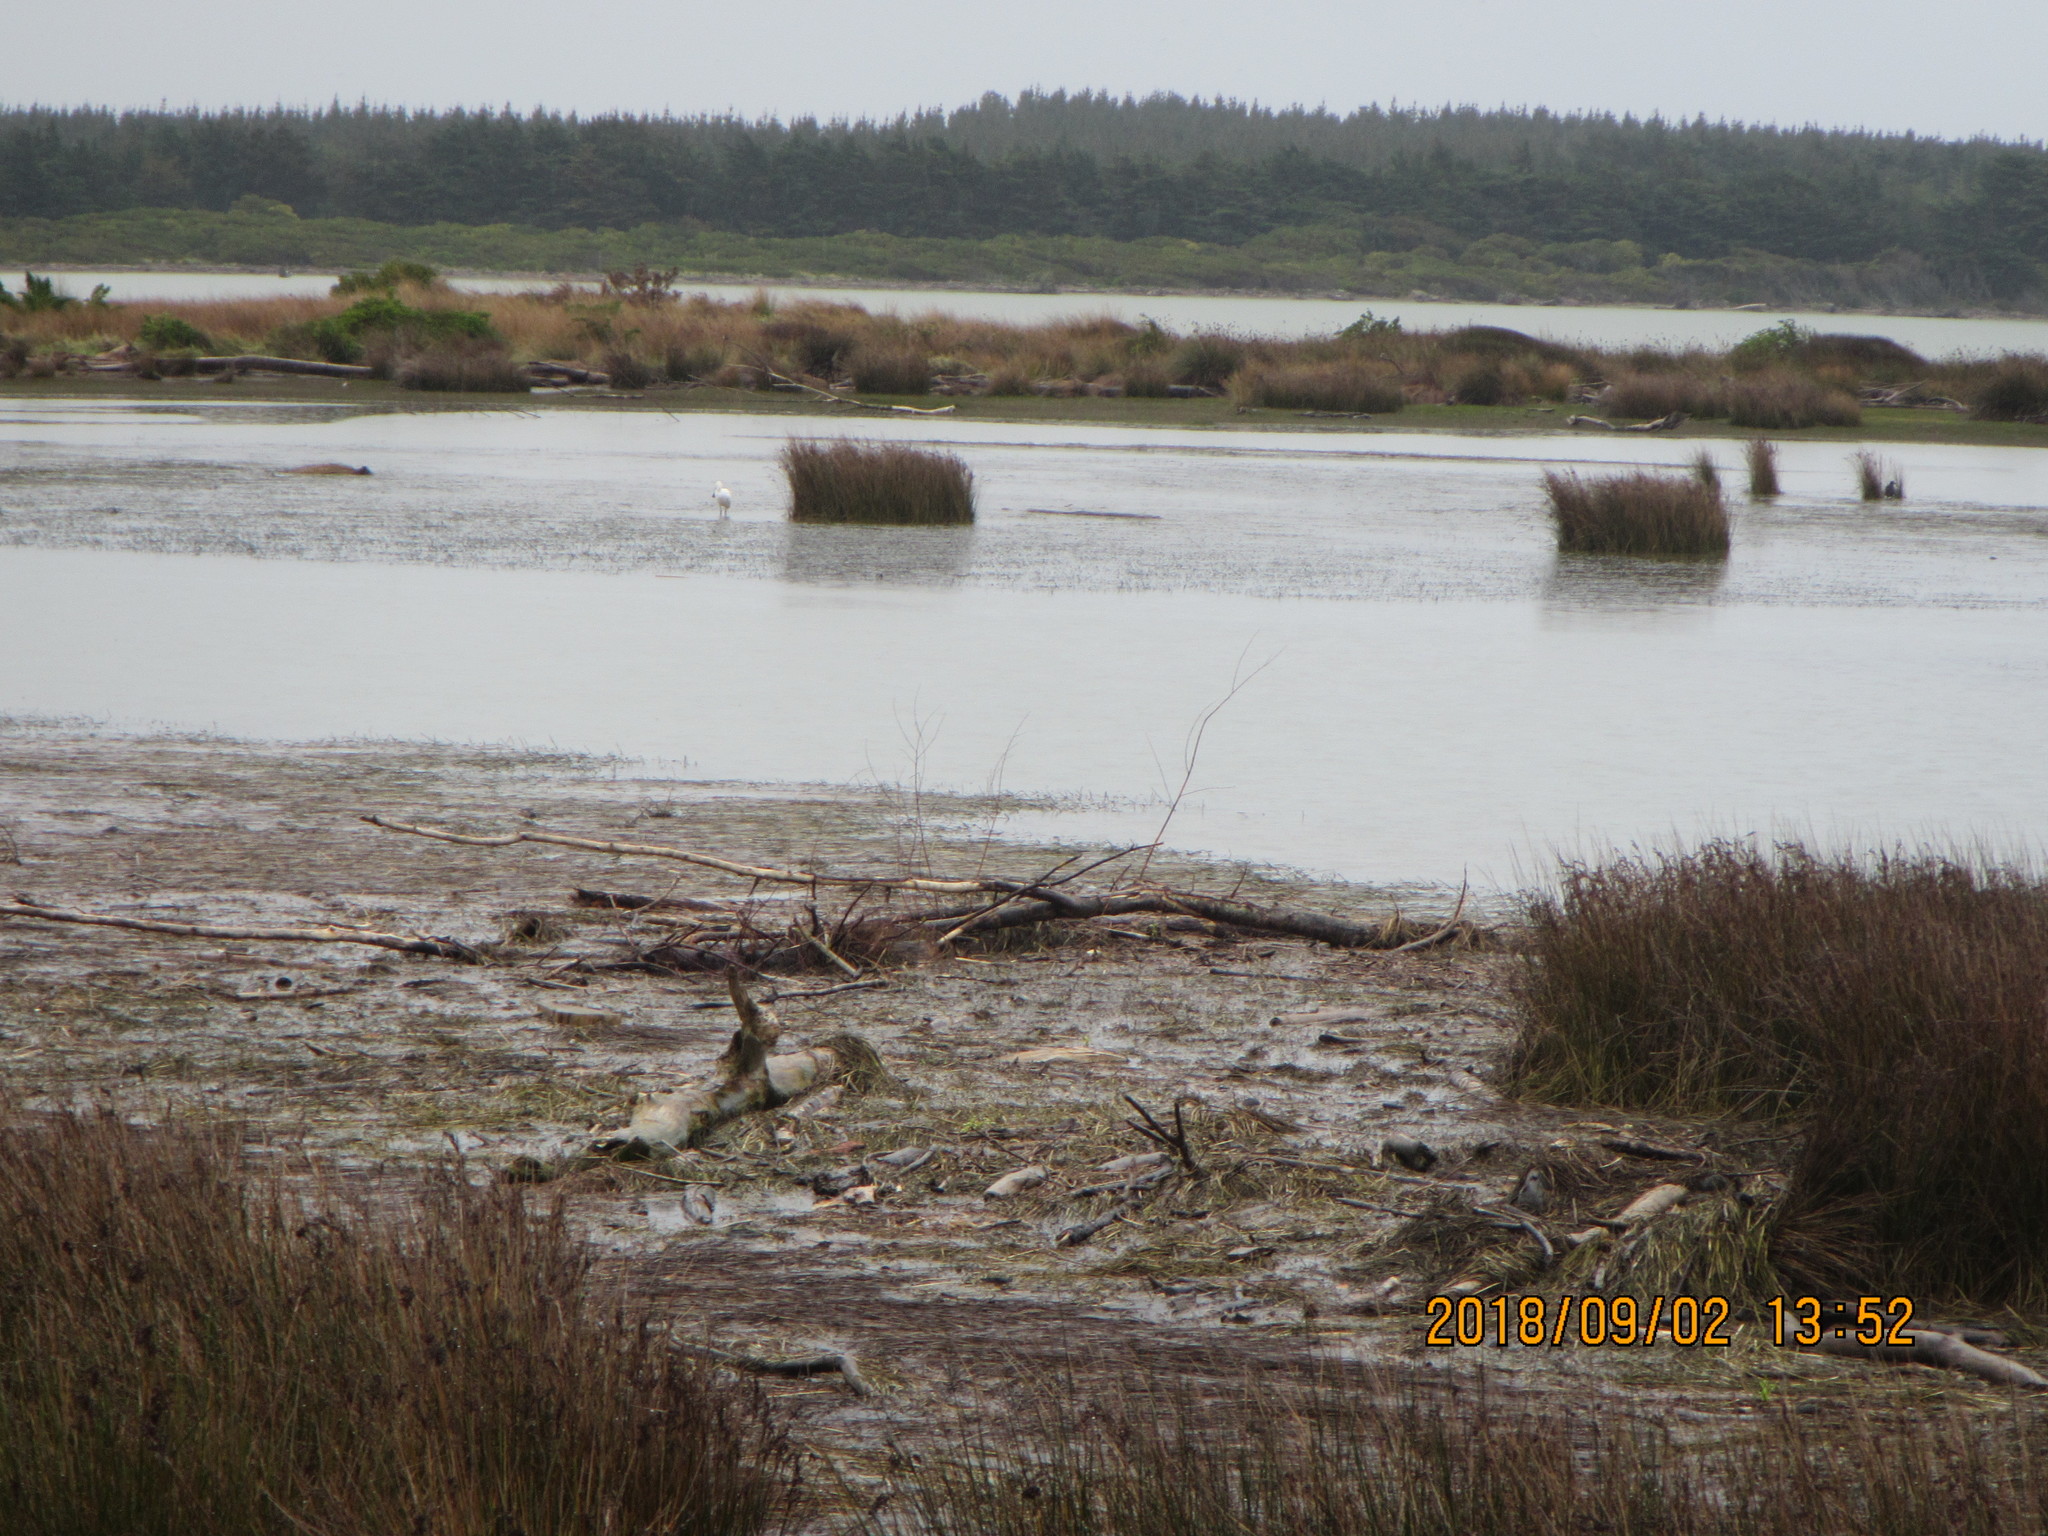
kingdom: Animalia
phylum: Chordata
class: Aves
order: Pelecaniformes
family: Threskiornithidae
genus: Platalea
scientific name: Platalea regia
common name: Royal spoonbill
